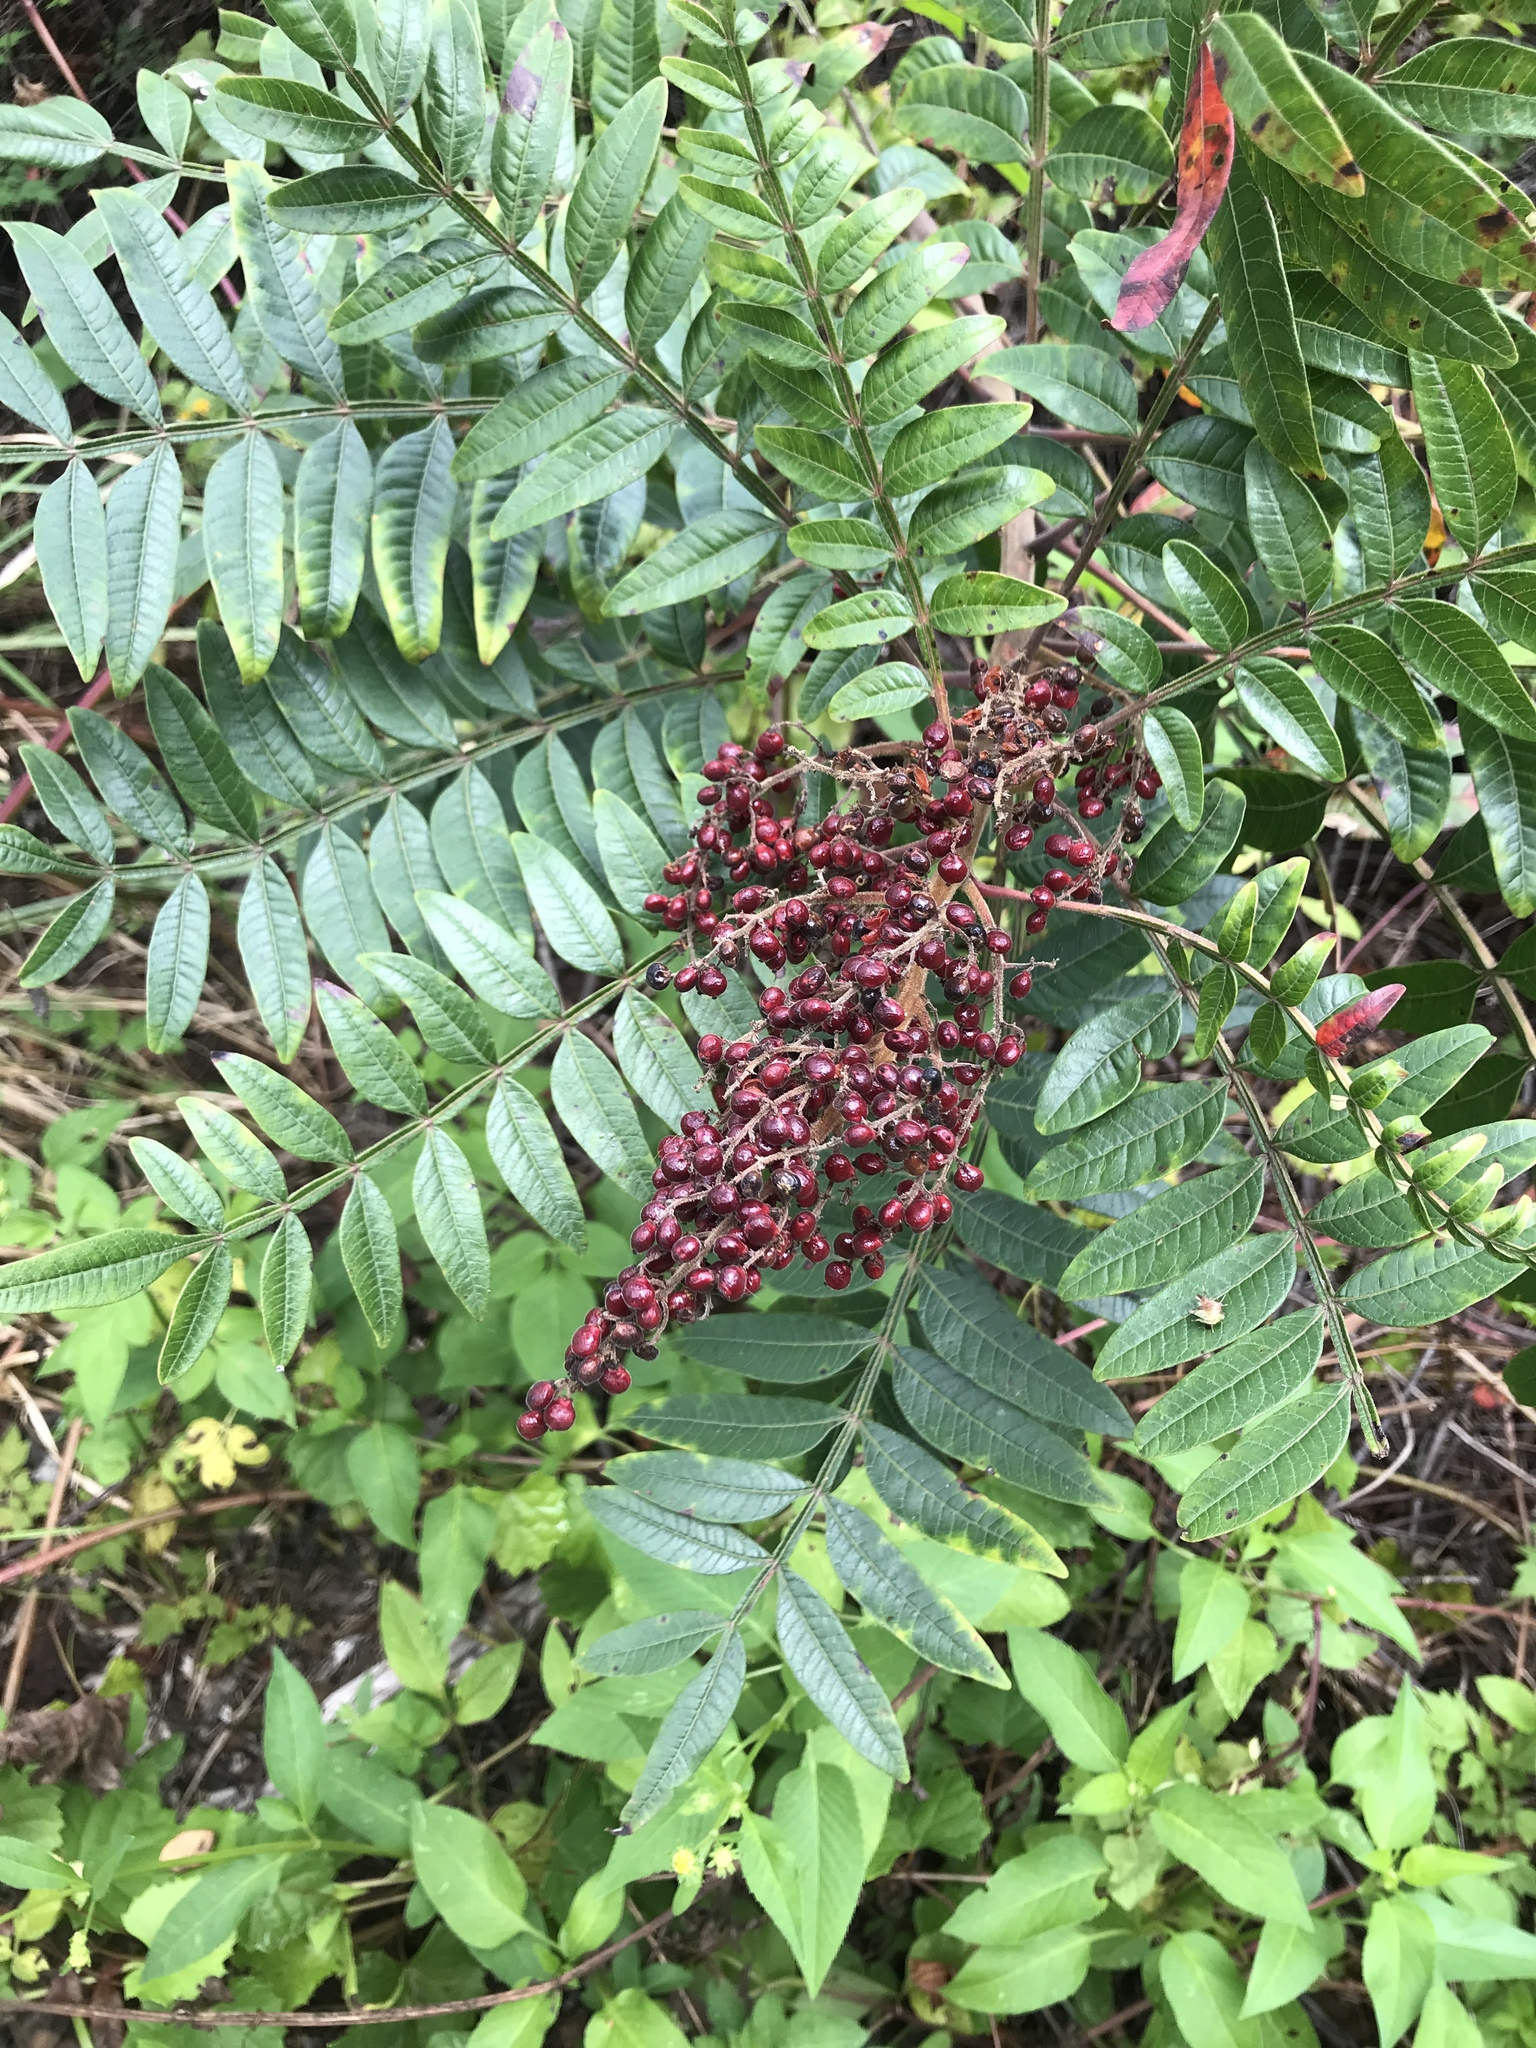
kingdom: Plantae
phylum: Tracheophyta
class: Magnoliopsida
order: Sapindales
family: Anacardiaceae
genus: Rhus
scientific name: Rhus copallina
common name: Shining sumac
